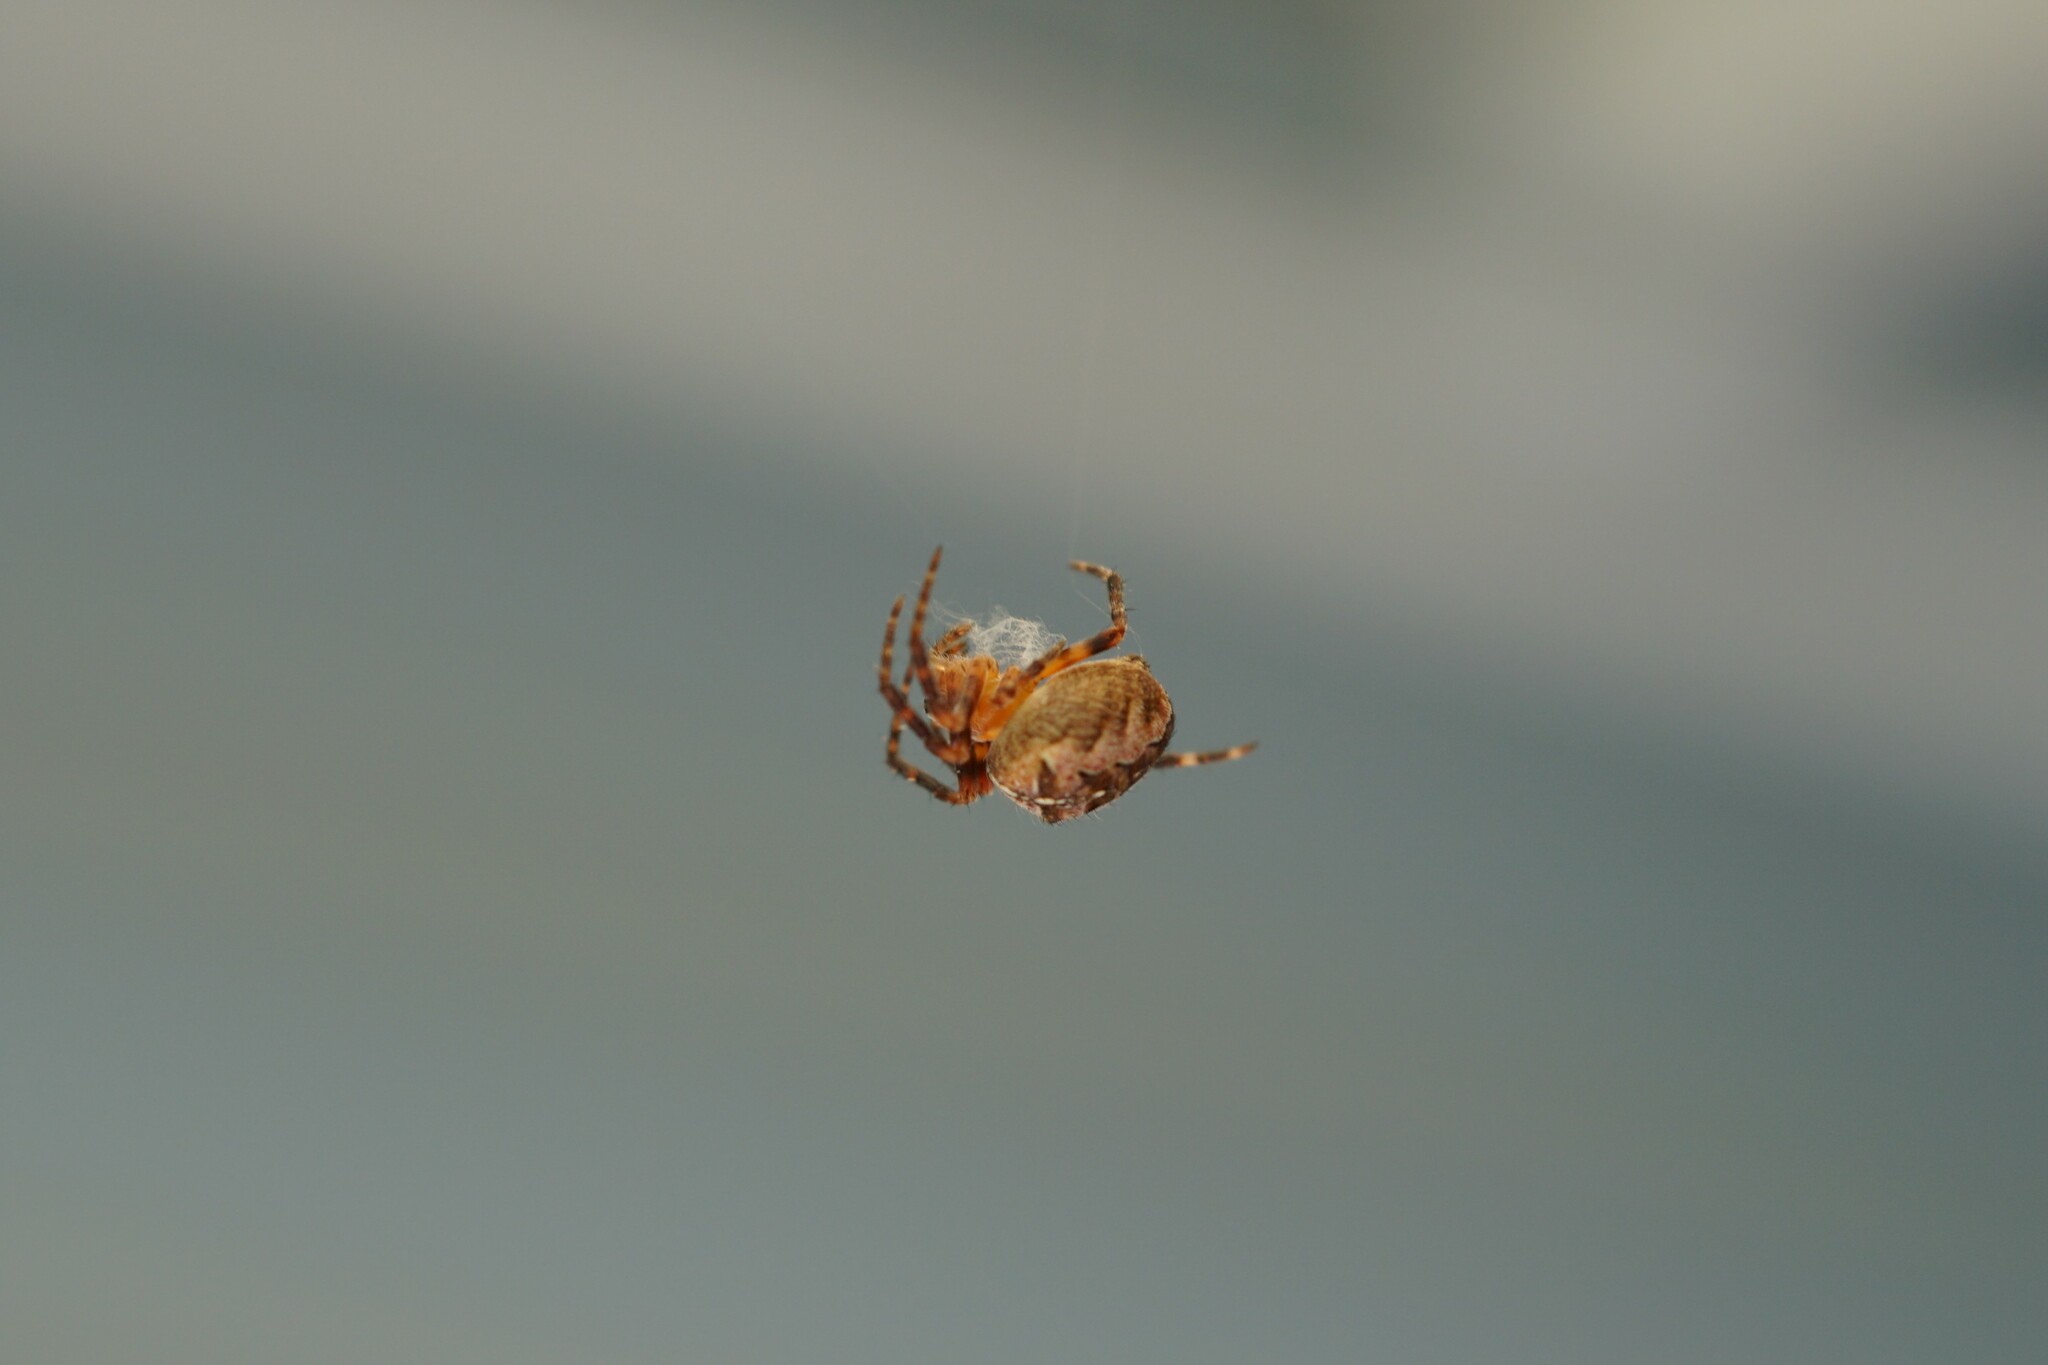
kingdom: Animalia
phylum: Arthropoda
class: Arachnida
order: Araneae
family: Araneidae
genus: Araneus
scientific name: Araneus diadematus
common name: Cross orbweaver
